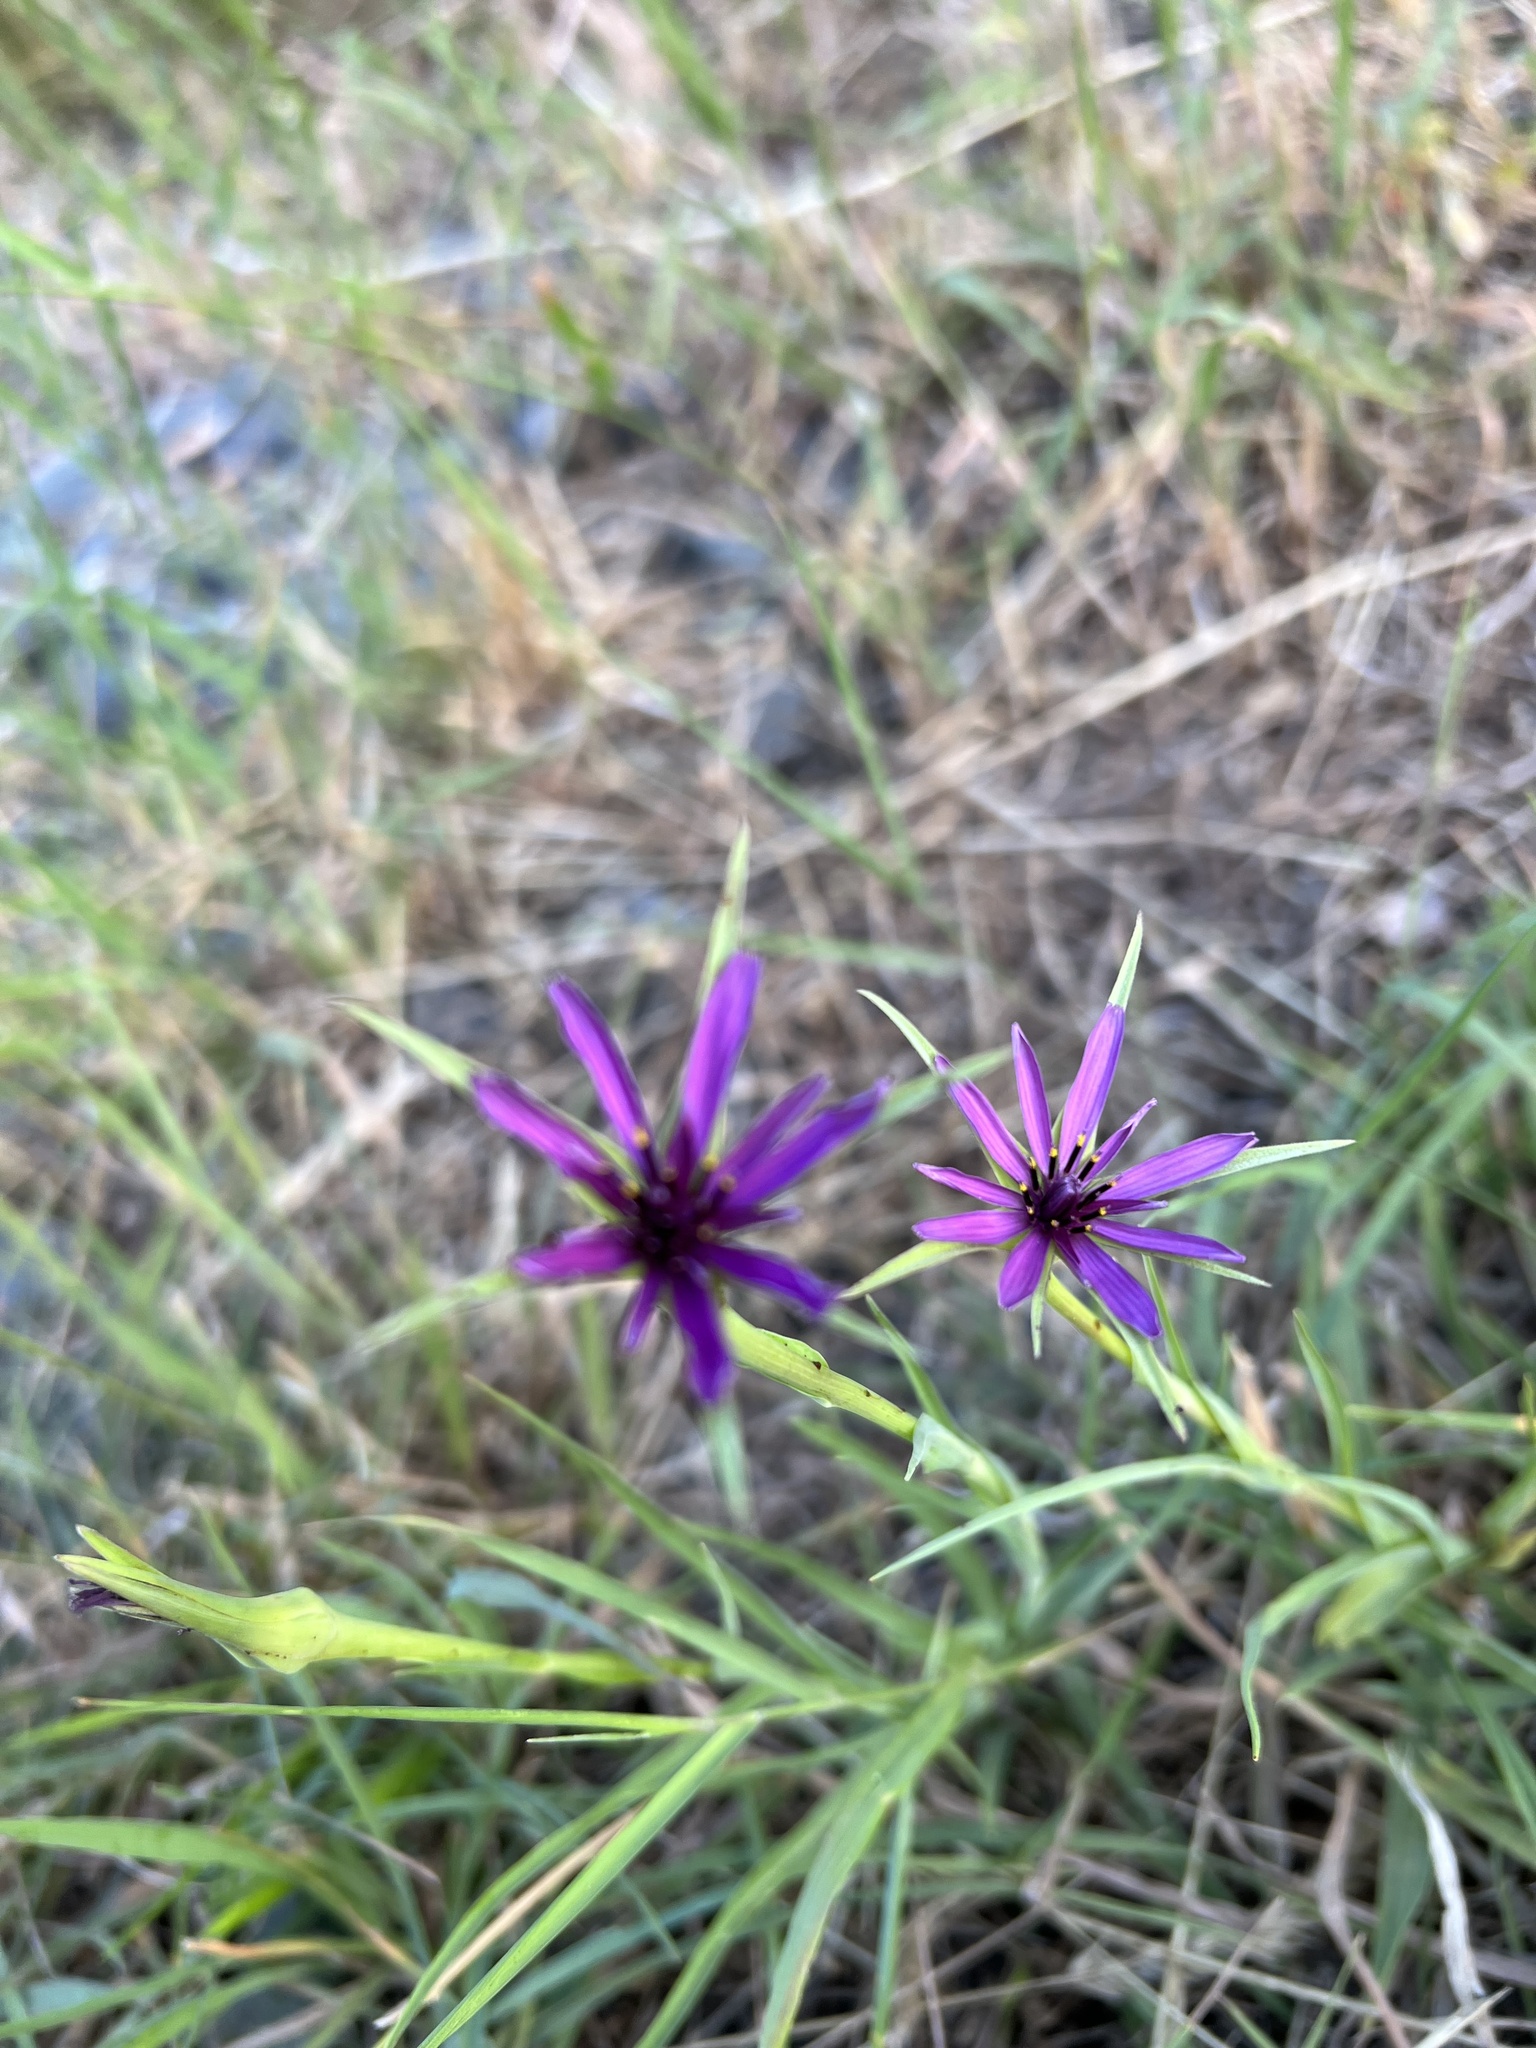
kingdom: Plantae
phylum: Tracheophyta
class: Magnoliopsida
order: Asterales
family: Asteraceae
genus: Tragopogon
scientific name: Tragopogon porrifolius
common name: Salsify
